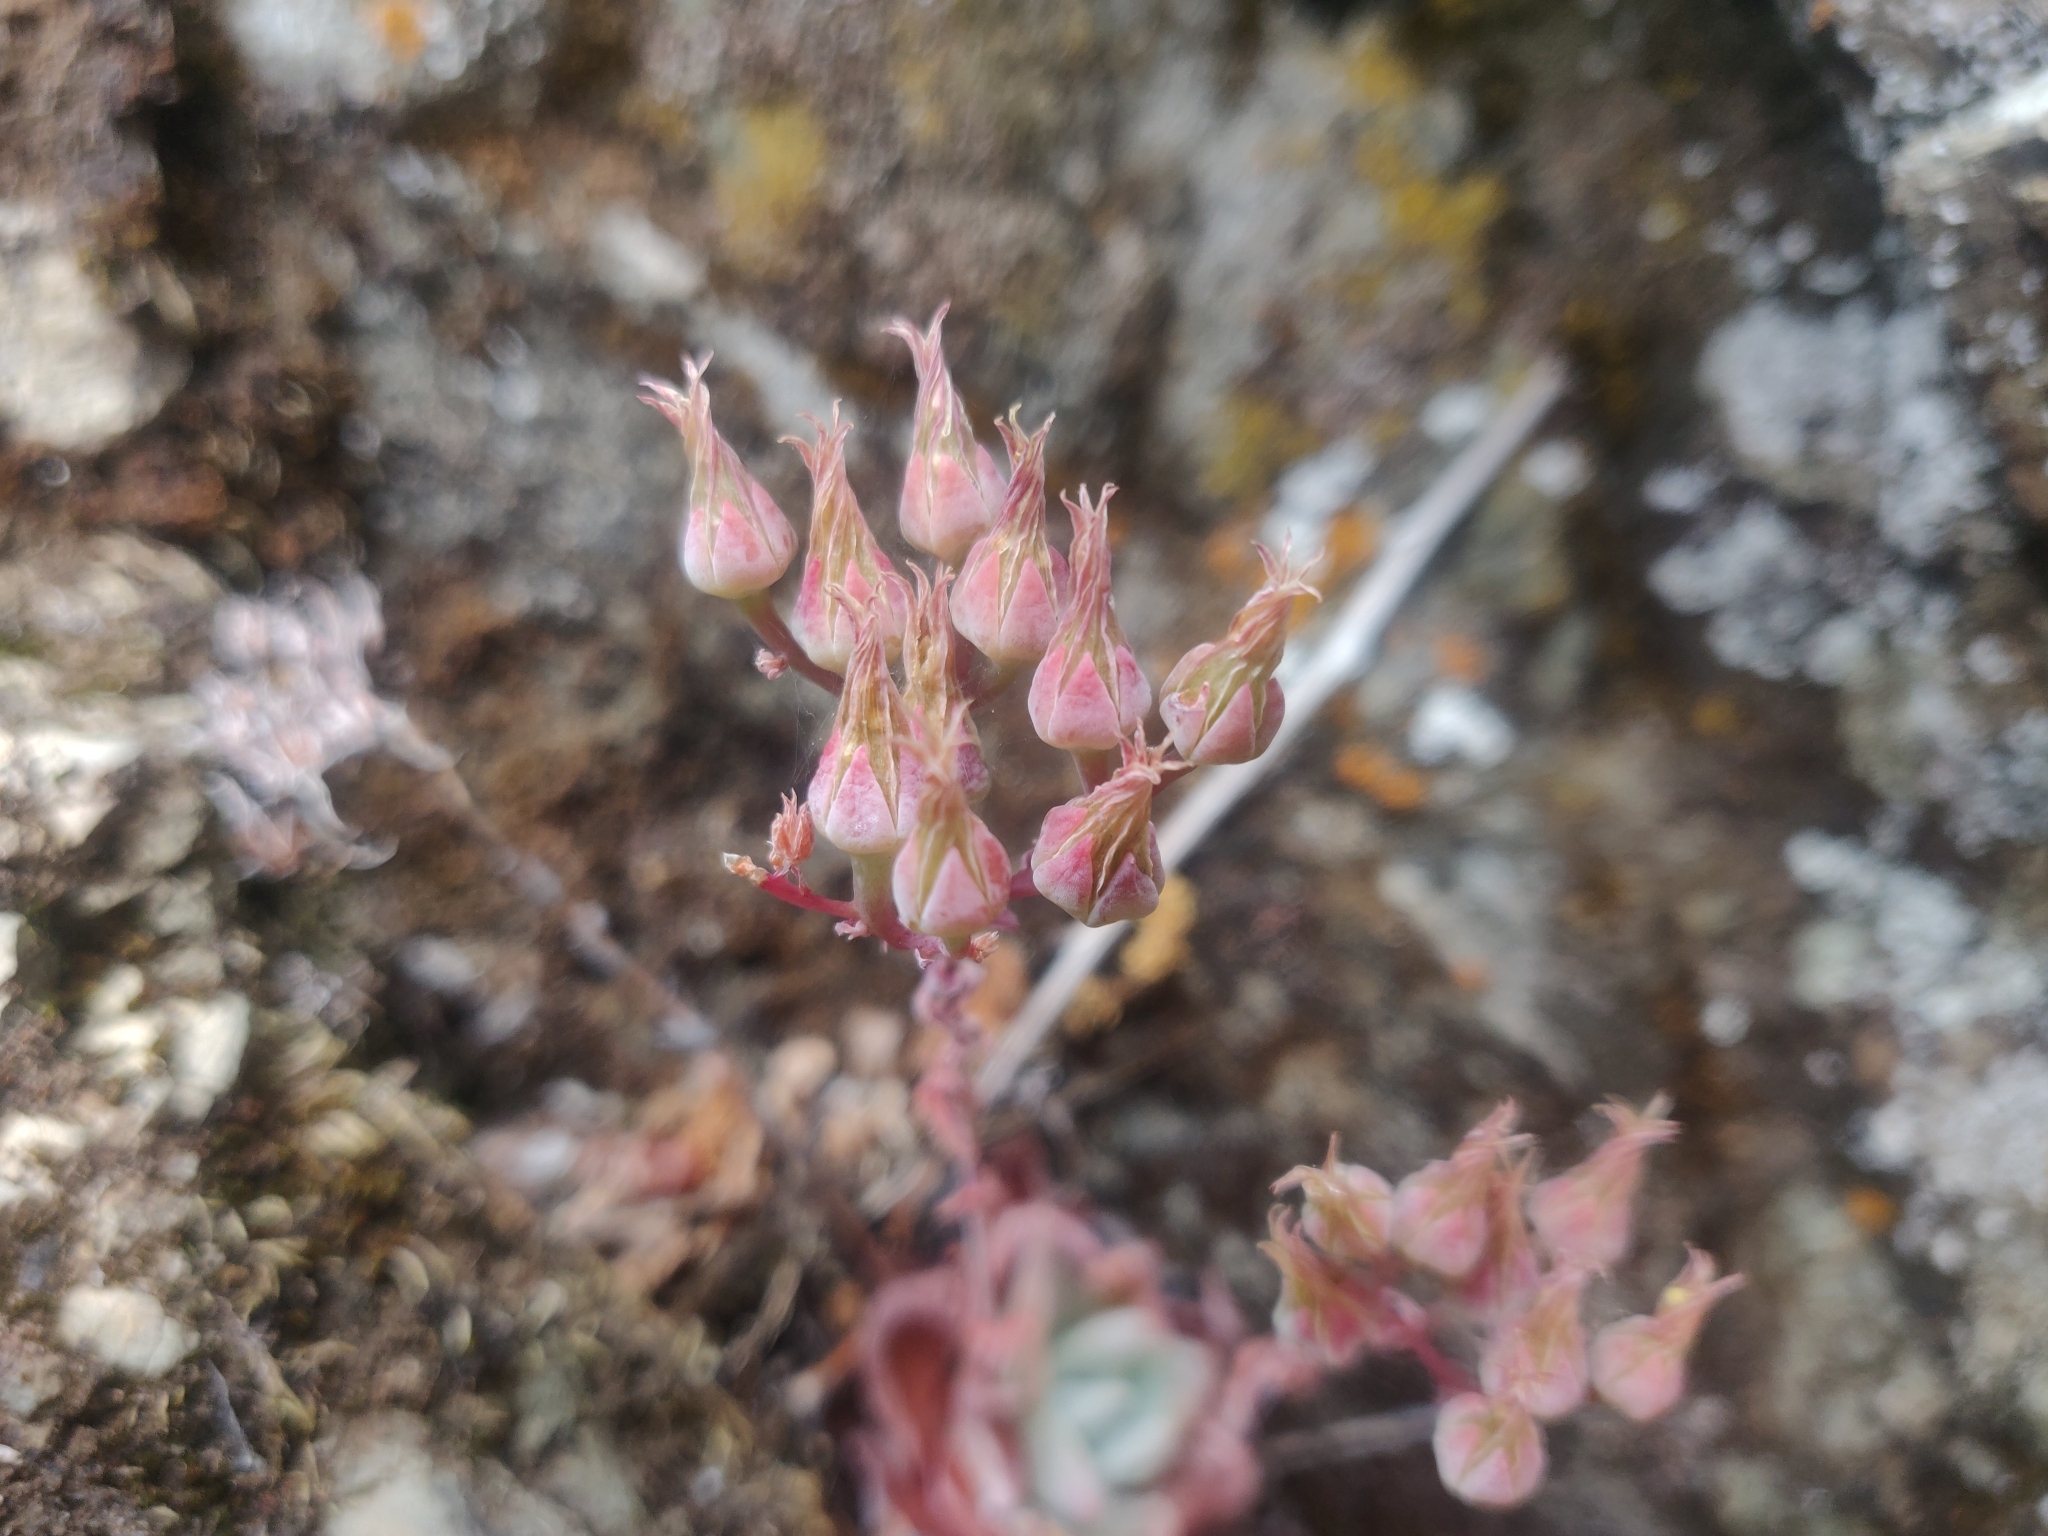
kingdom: Plantae
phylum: Tracheophyta
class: Magnoliopsida
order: Saxifragales
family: Crassulaceae
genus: Dudleya
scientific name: Dudleya cymosa
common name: Canyon dudleya
